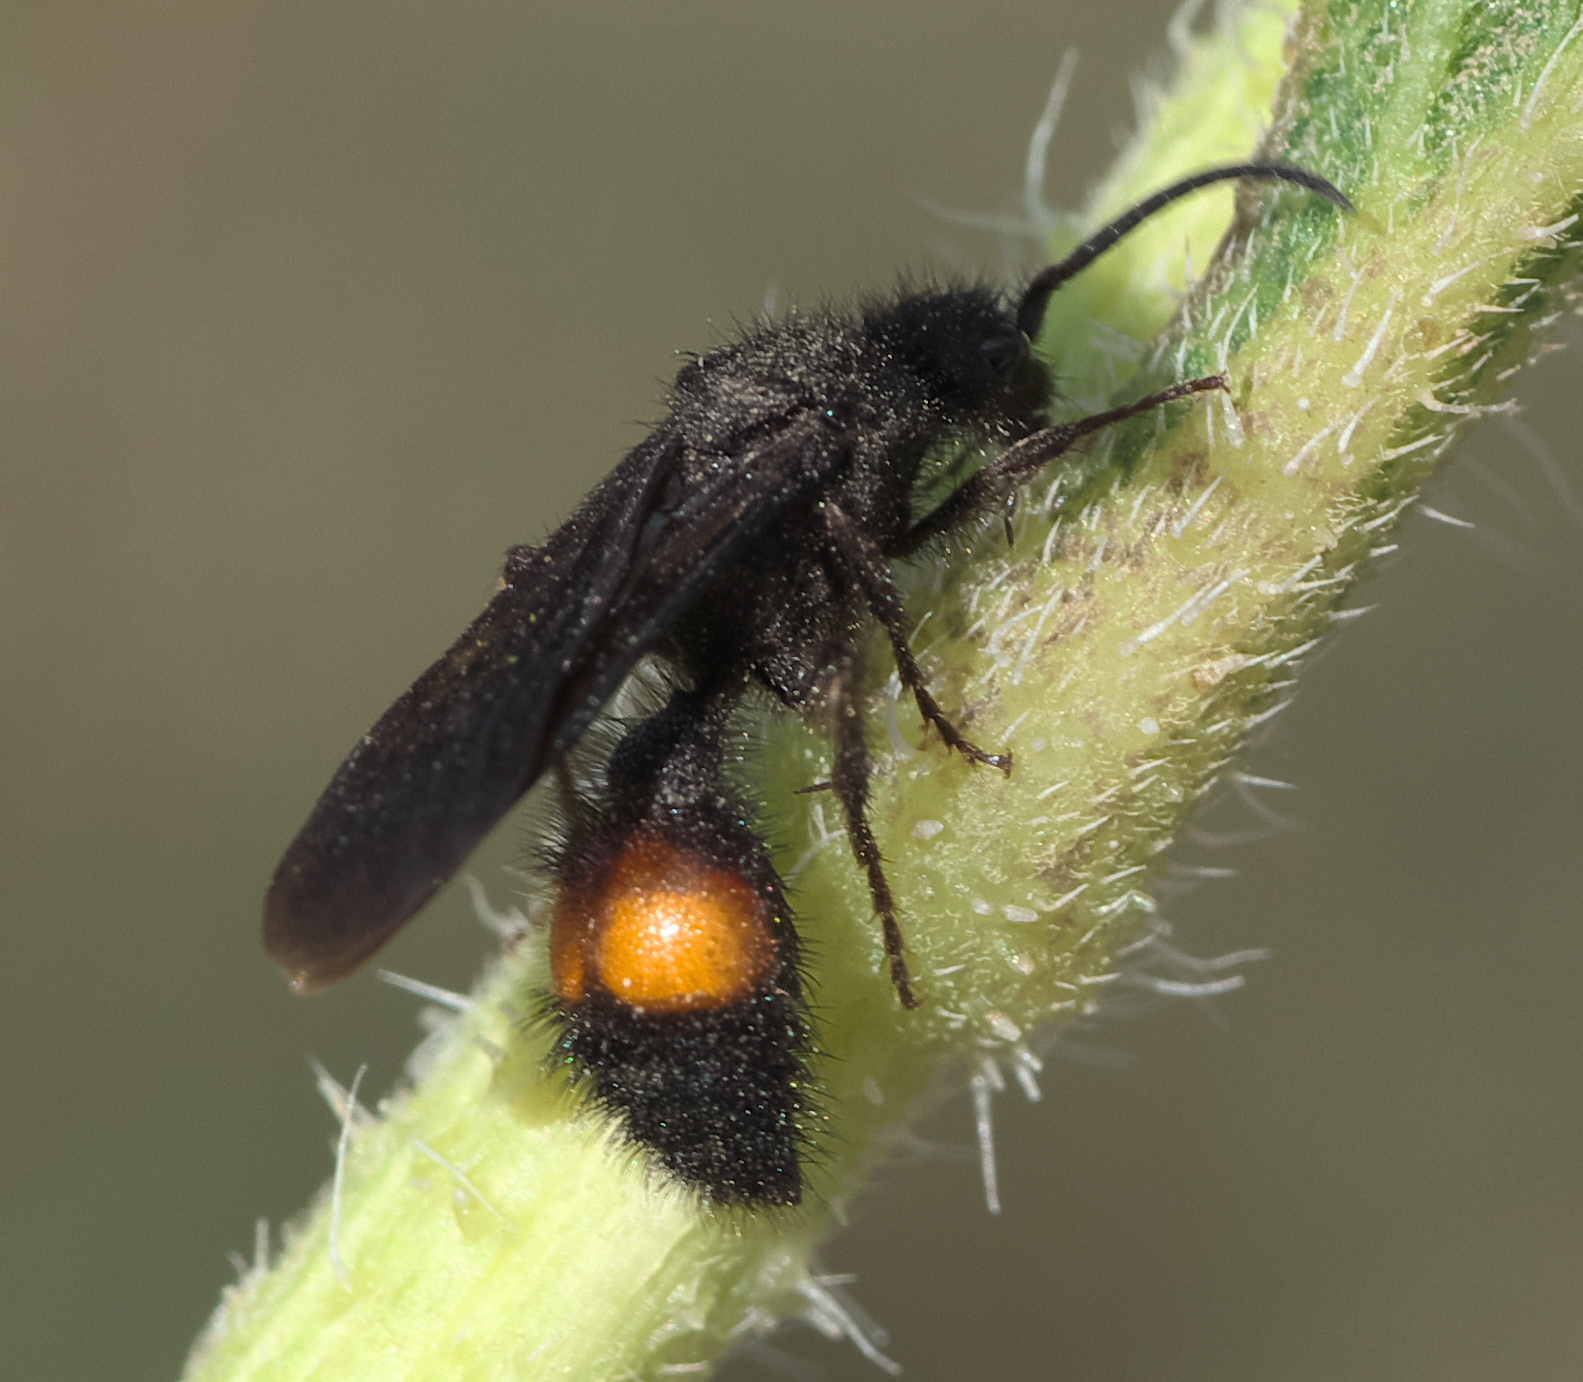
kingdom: Animalia
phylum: Arthropoda
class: Insecta
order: Hymenoptera
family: Mutillidae
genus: Dasymutilla
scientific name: Dasymutilla
